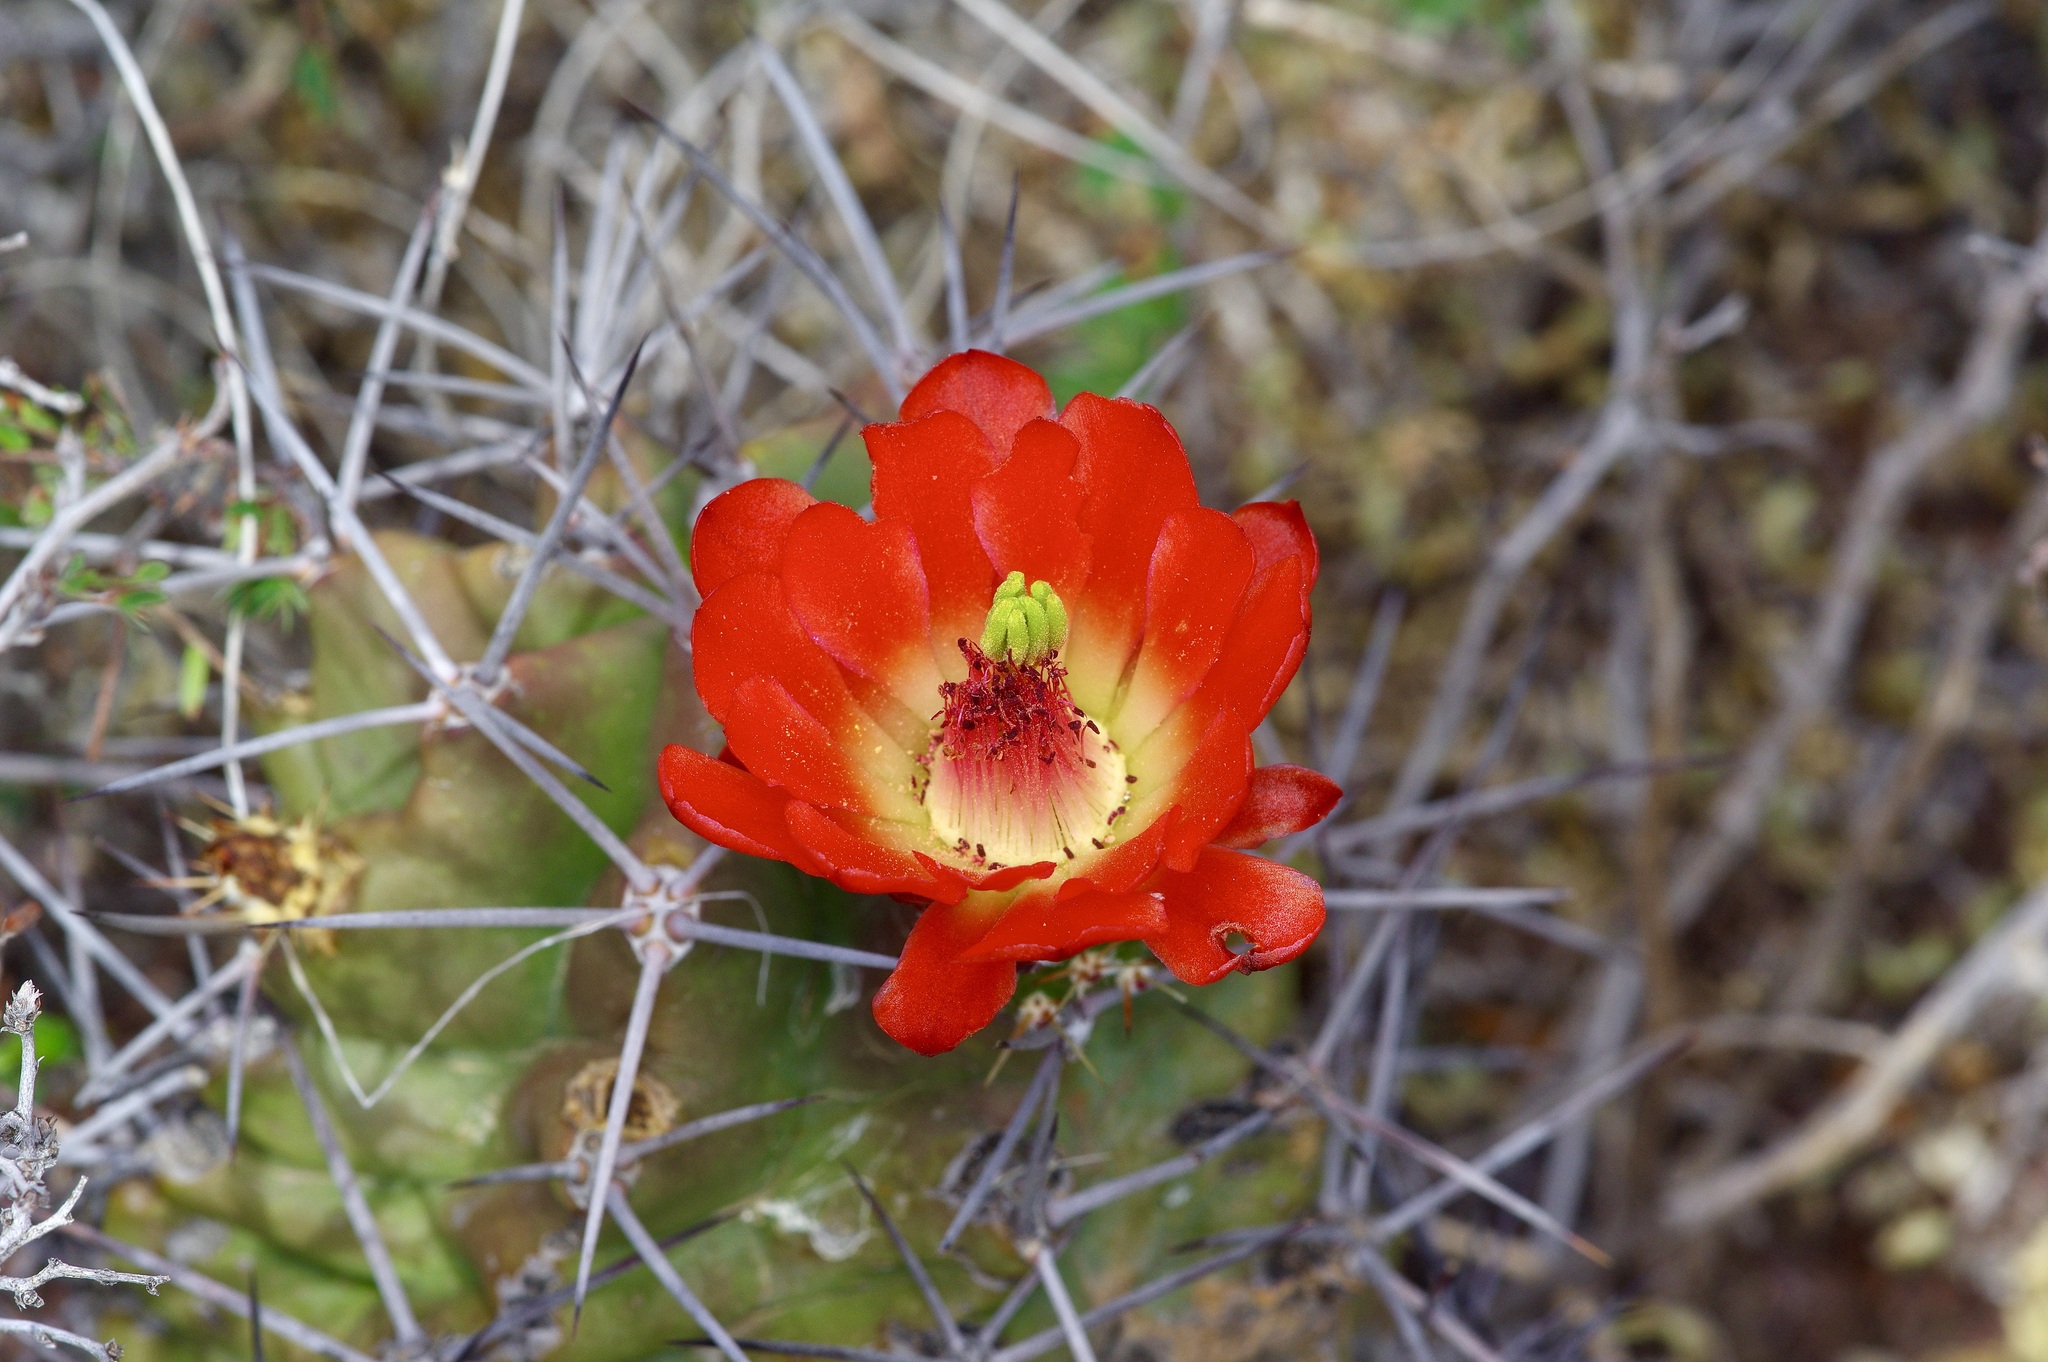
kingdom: Plantae
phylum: Tracheophyta
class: Magnoliopsida
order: Caryophyllales
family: Cactaceae
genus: Echinocereus
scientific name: Echinocereus coccineus
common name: Scarlet hedgehog cactus
